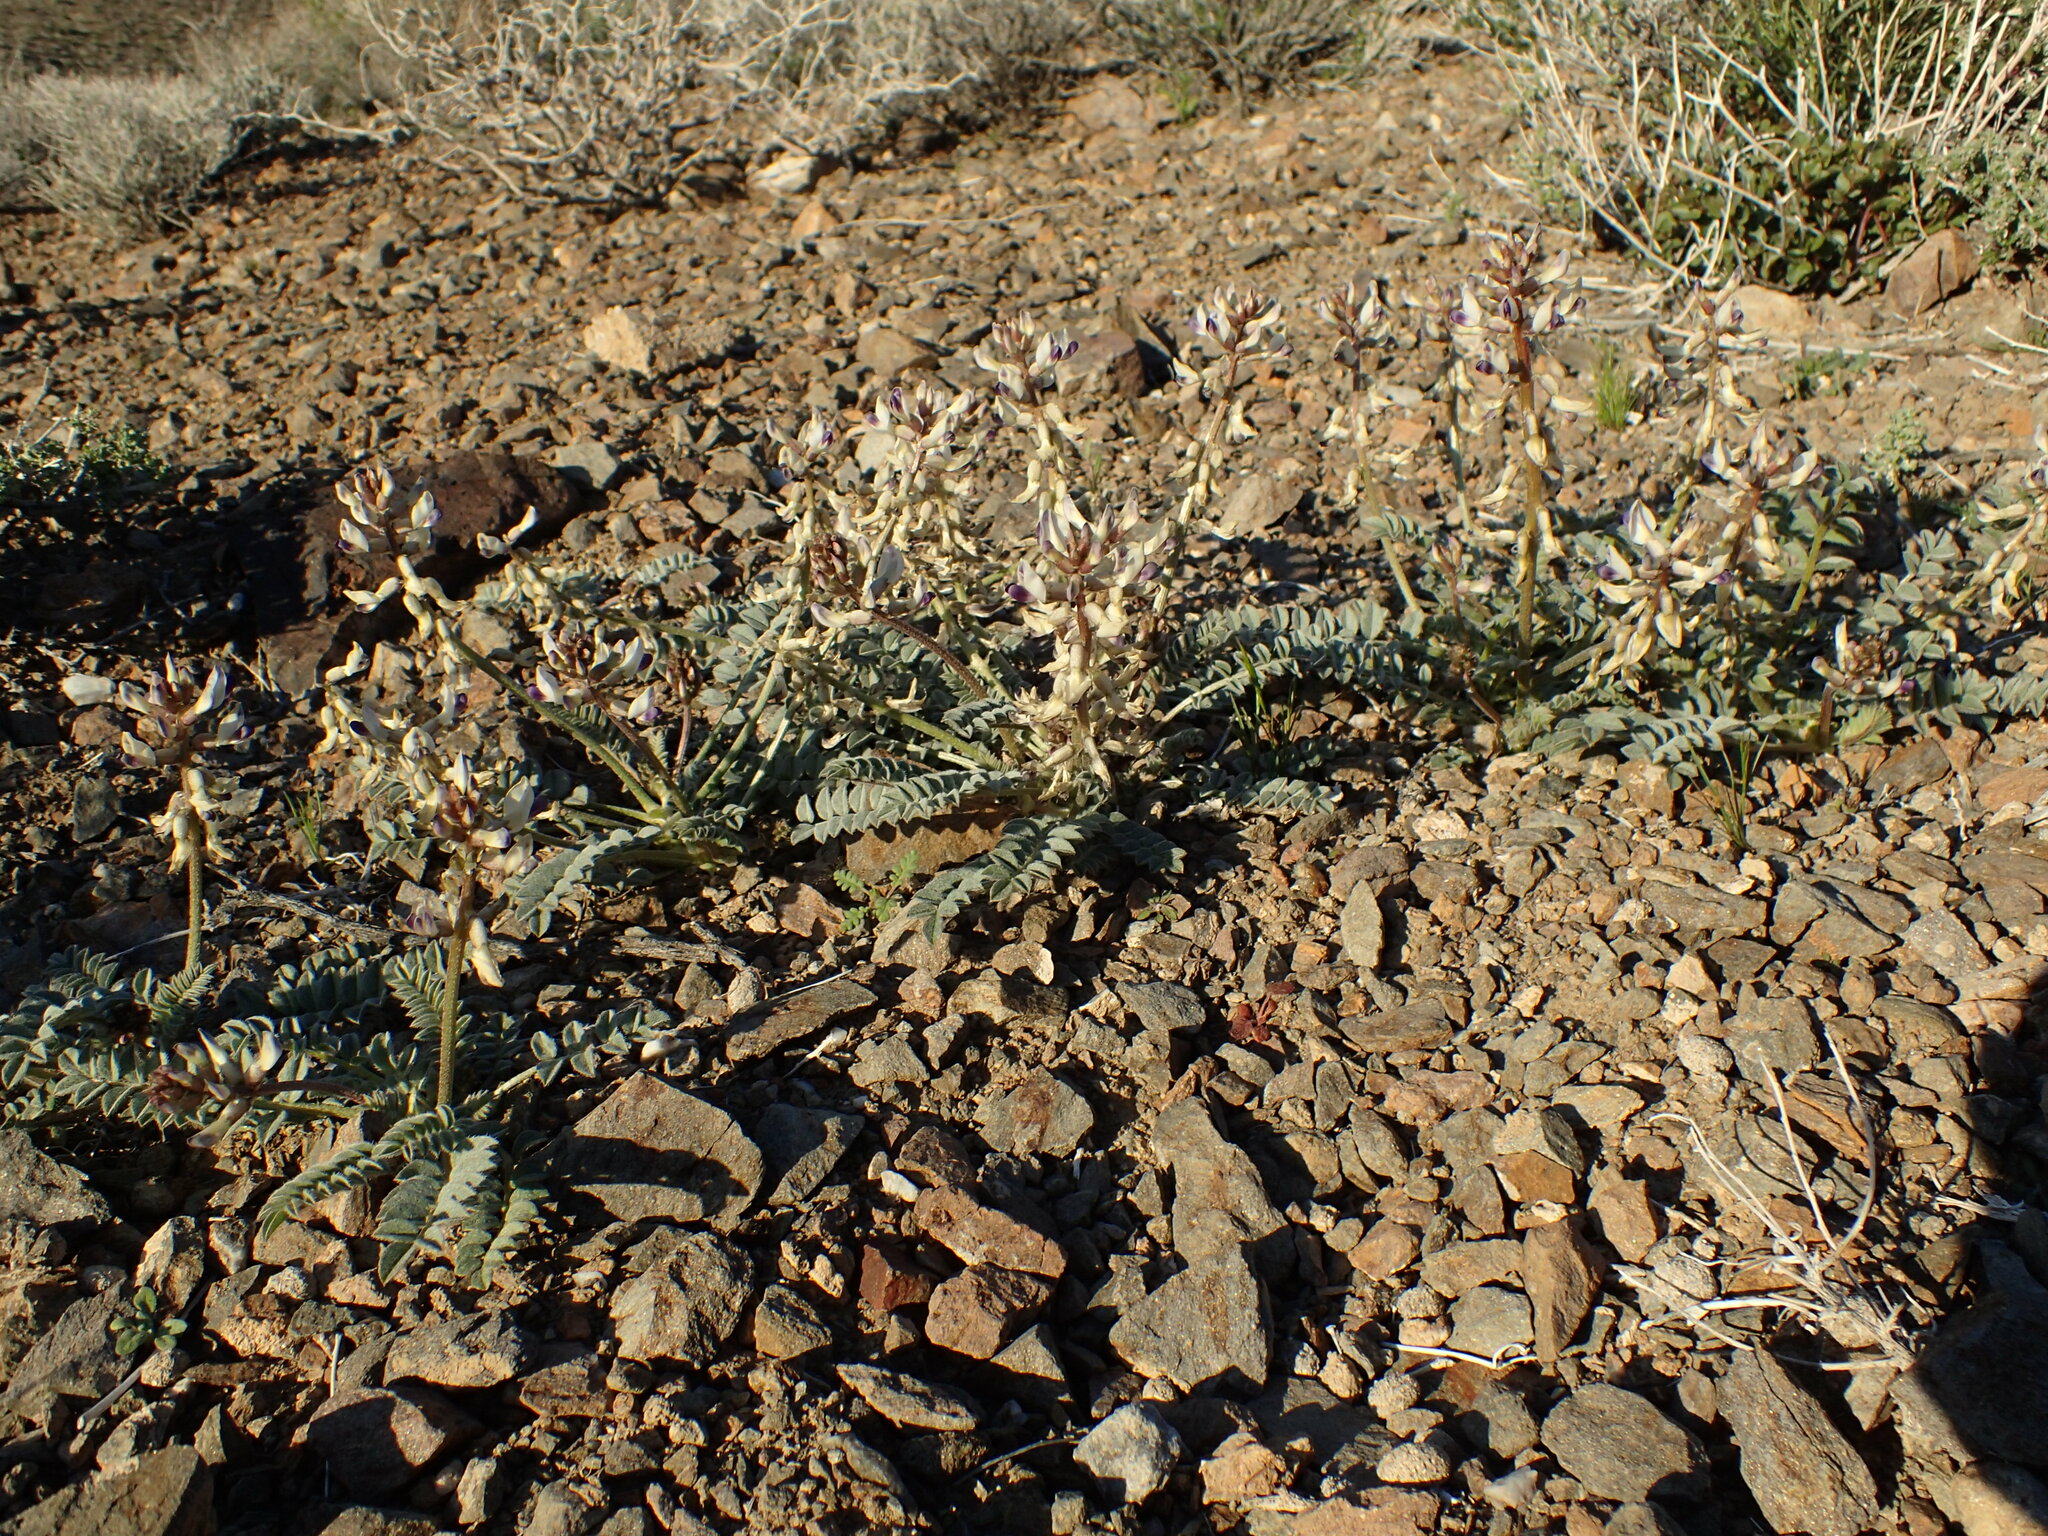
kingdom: Animalia
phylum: Arthropoda
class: Insecta
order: Lepidoptera
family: Sphingidae
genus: Hyles
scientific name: Hyles lineata
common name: White-lined sphinx
